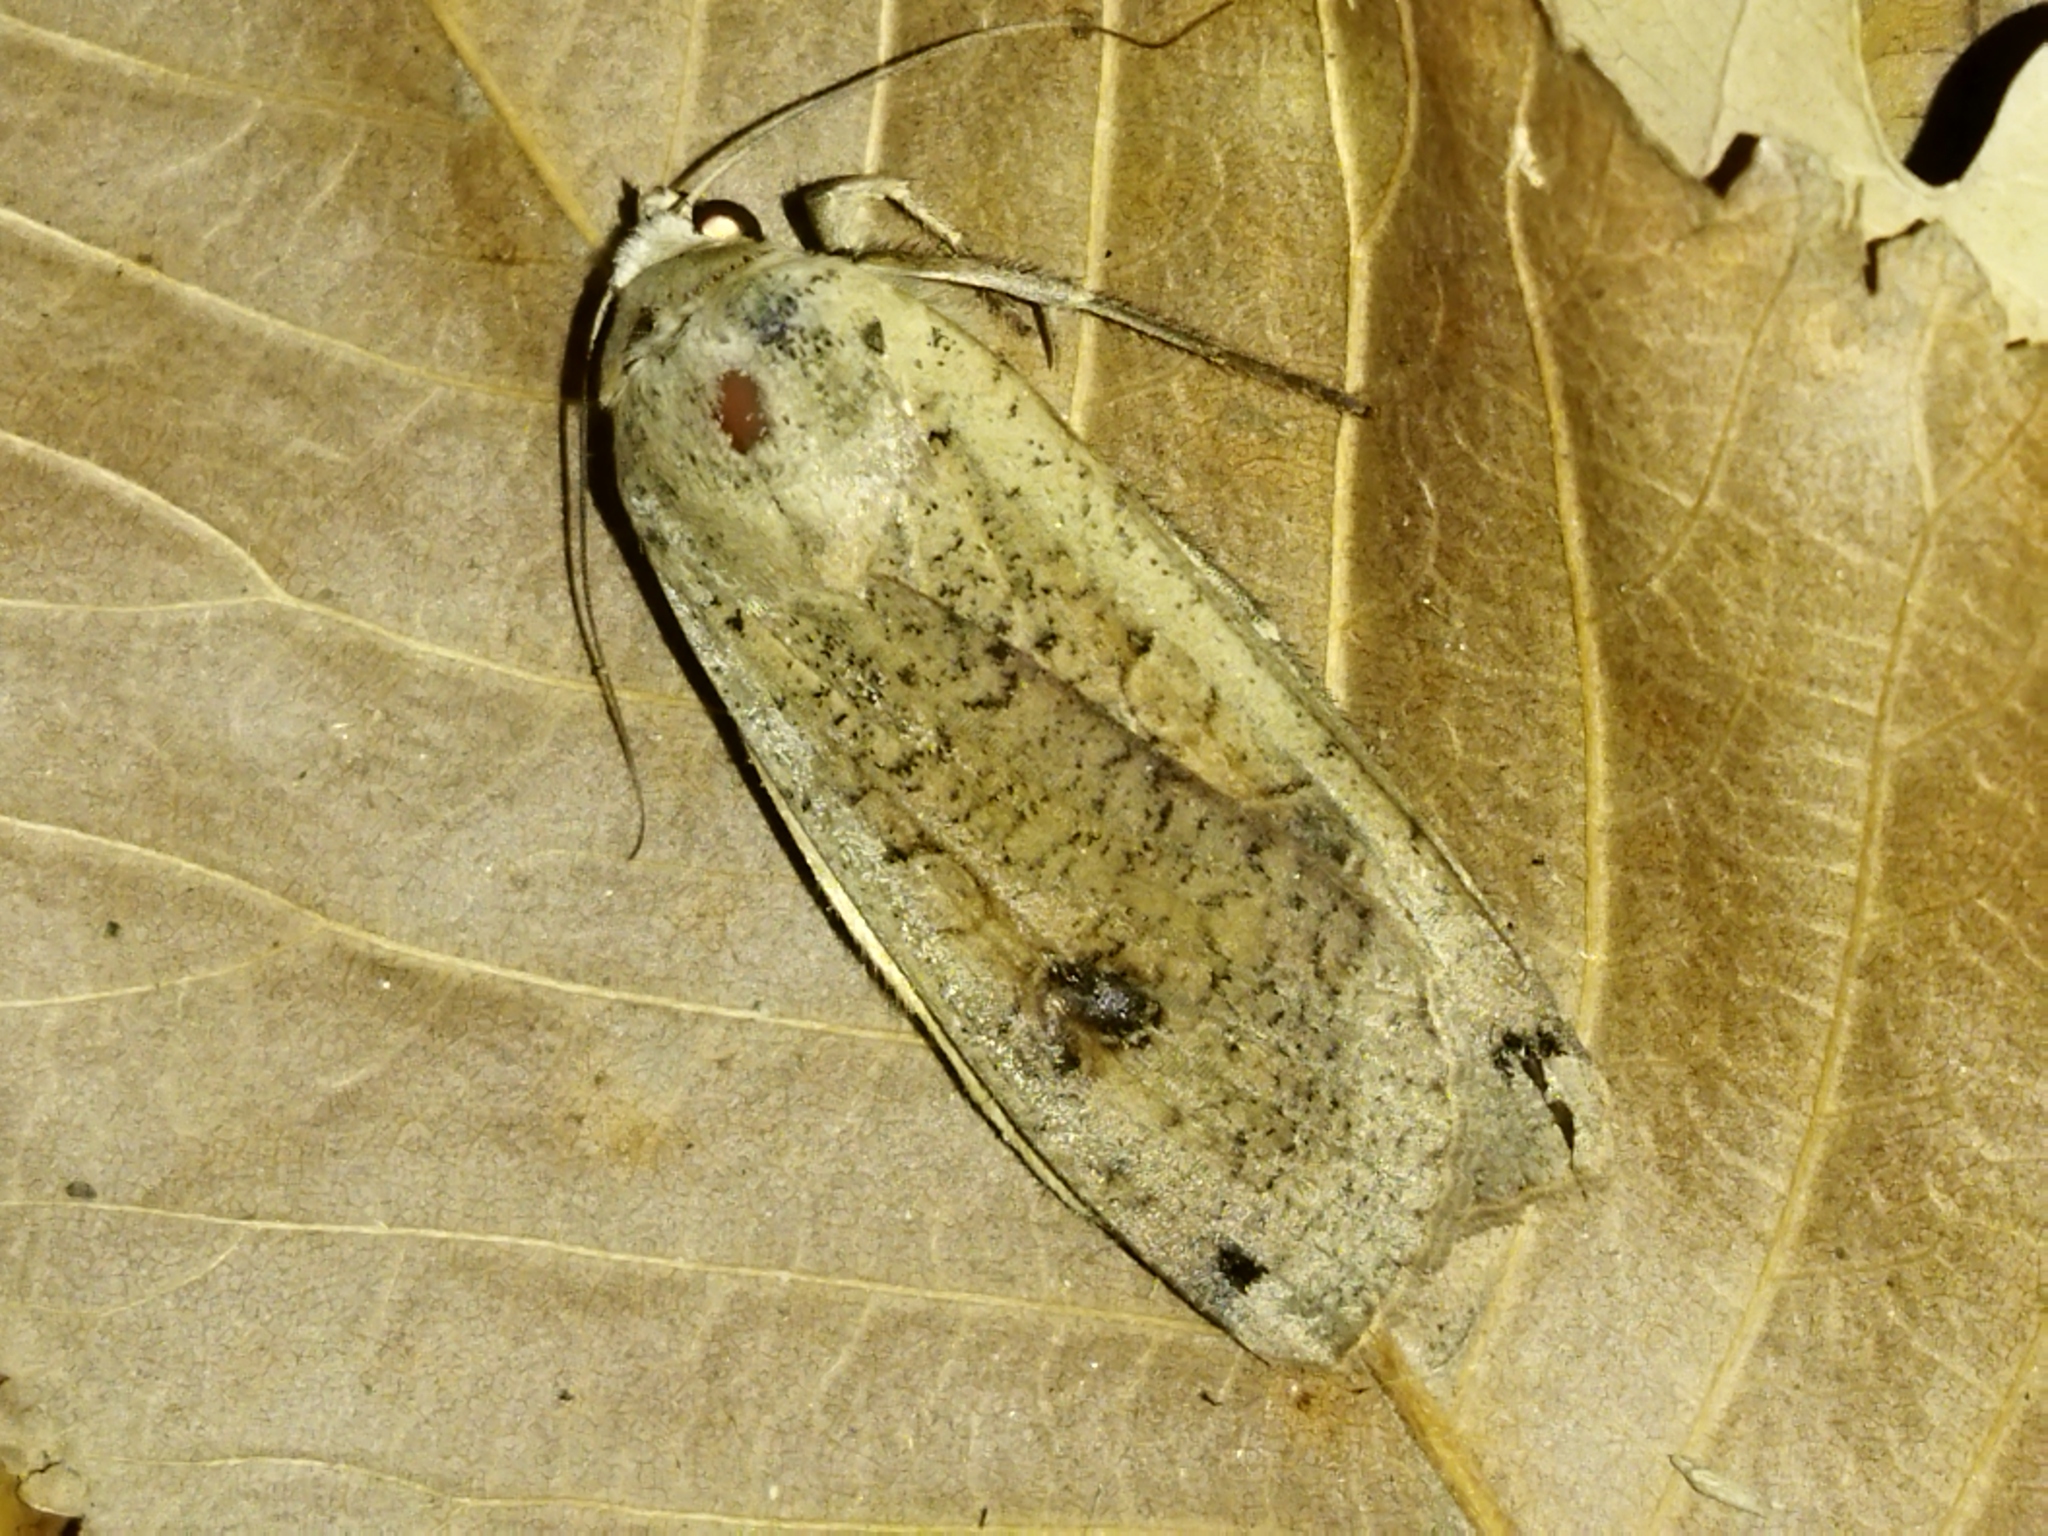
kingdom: Animalia
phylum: Arthropoda
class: Insecta
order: Lepidoptera
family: Noctuidae
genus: Noctua
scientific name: Noctua pronuba
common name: Large yellow underwing
